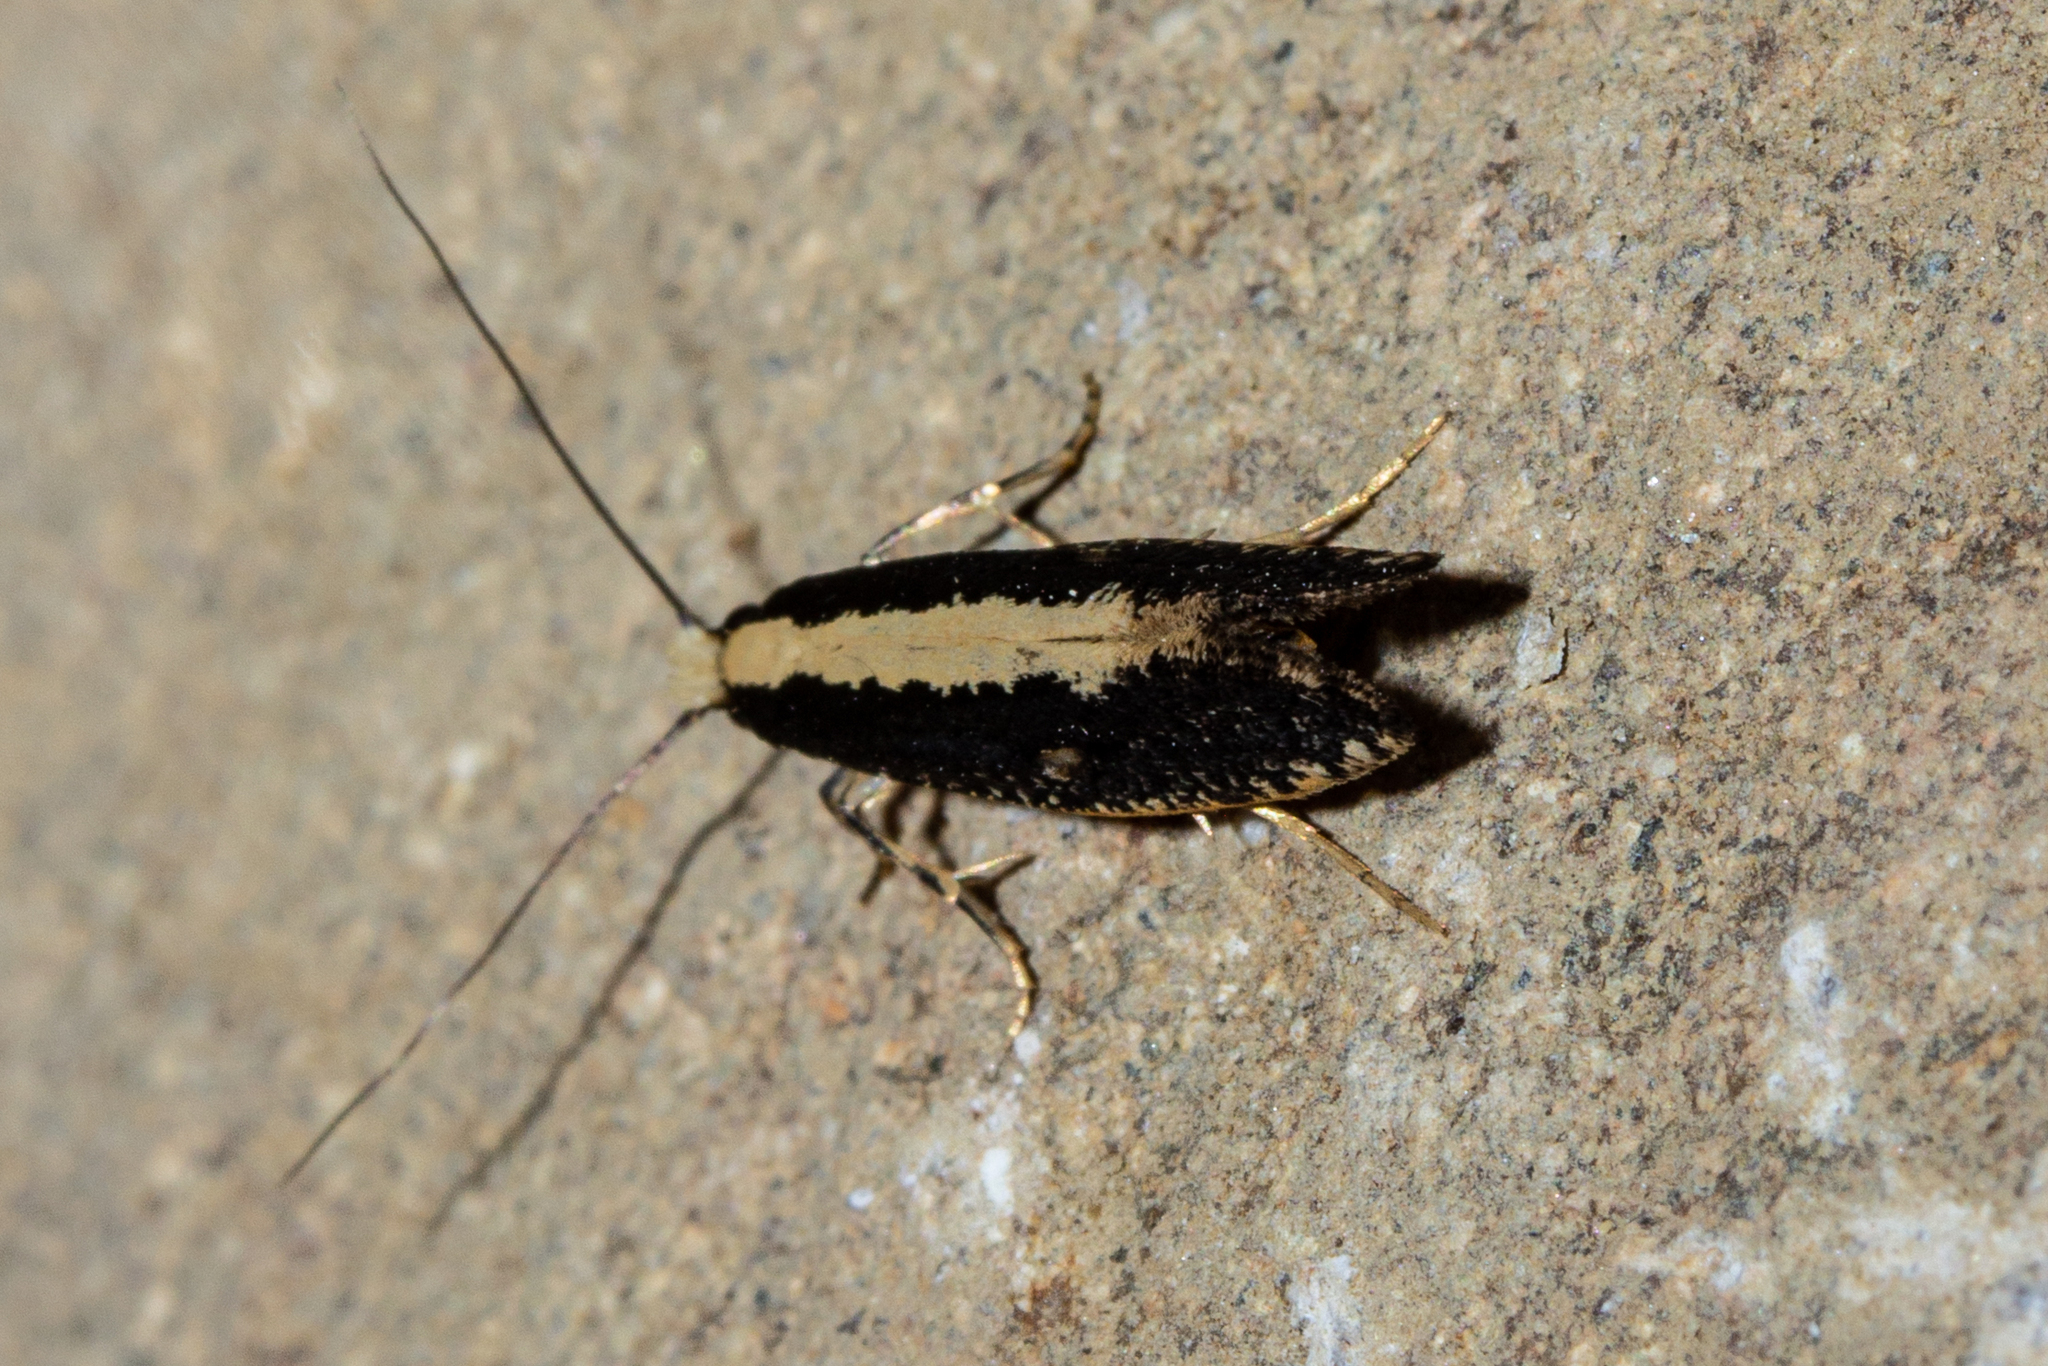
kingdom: Animalia
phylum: Arthropoda
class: Insecta
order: Lepidoptera
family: Tineidae
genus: Monopis
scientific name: Monopis ethelella
